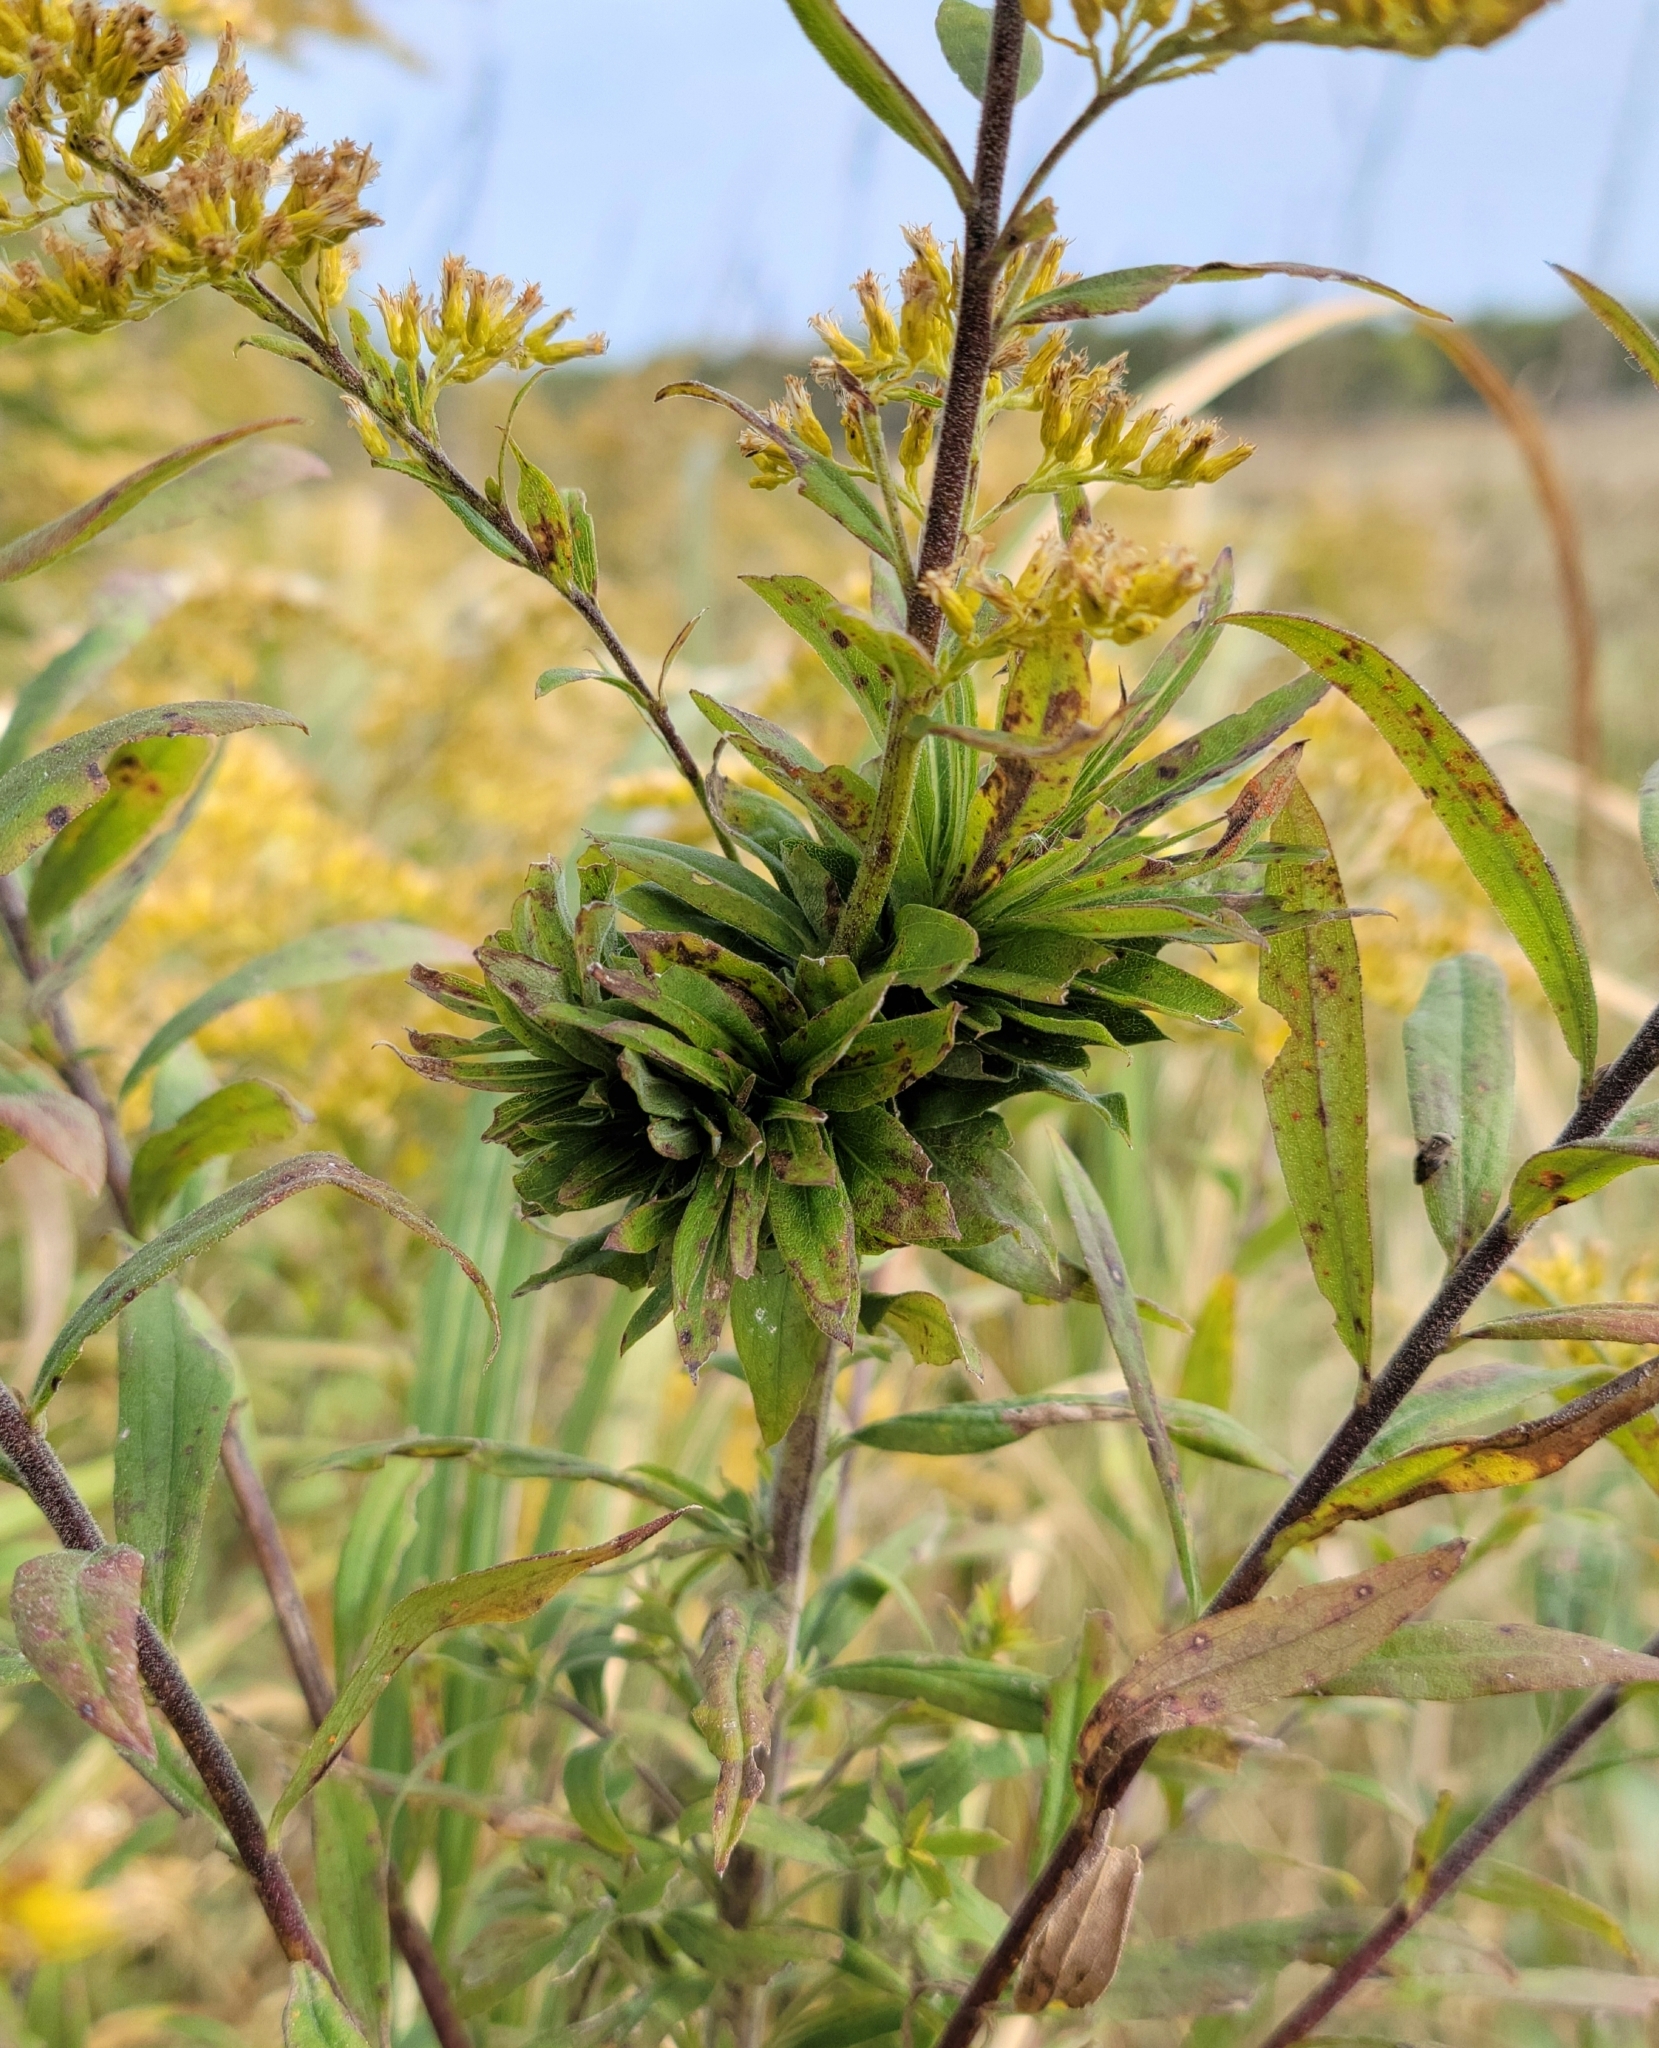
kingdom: Animalia
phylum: Arthropoda
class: Insecta
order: Diptera
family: Cecidomyiidae
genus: Rhopalomyia
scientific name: Rhopalomyia solidaginis
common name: Goldenrod bunch gall midge
